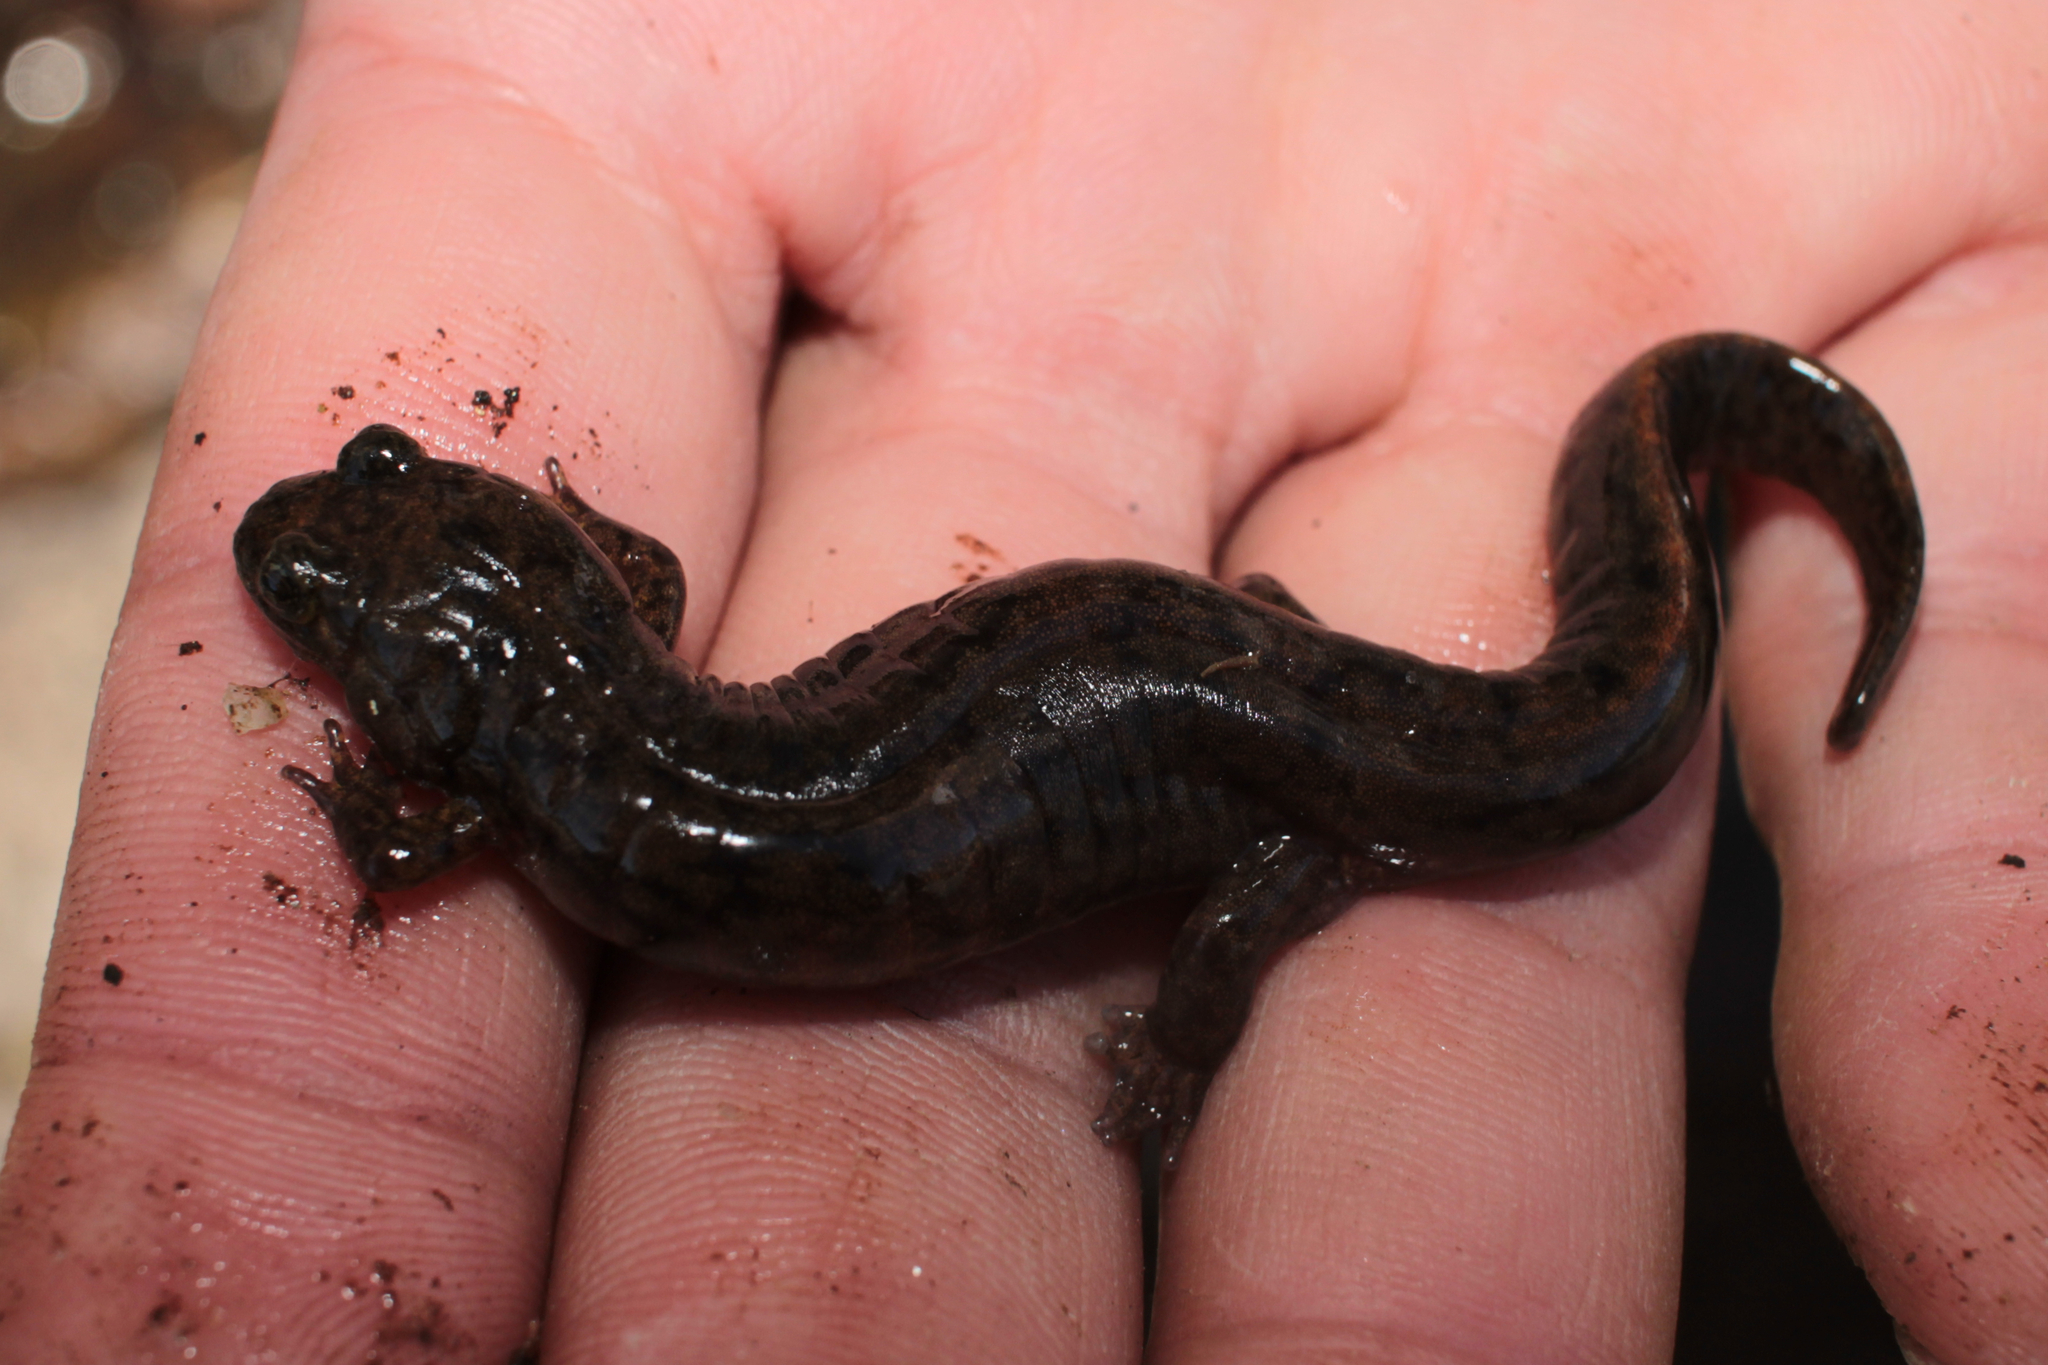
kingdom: Animalia
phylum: Chordata
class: Amphibia
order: Caudata
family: Plethodontidae
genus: Desmognathus
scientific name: Desmognathus monticola
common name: Seal salamander
